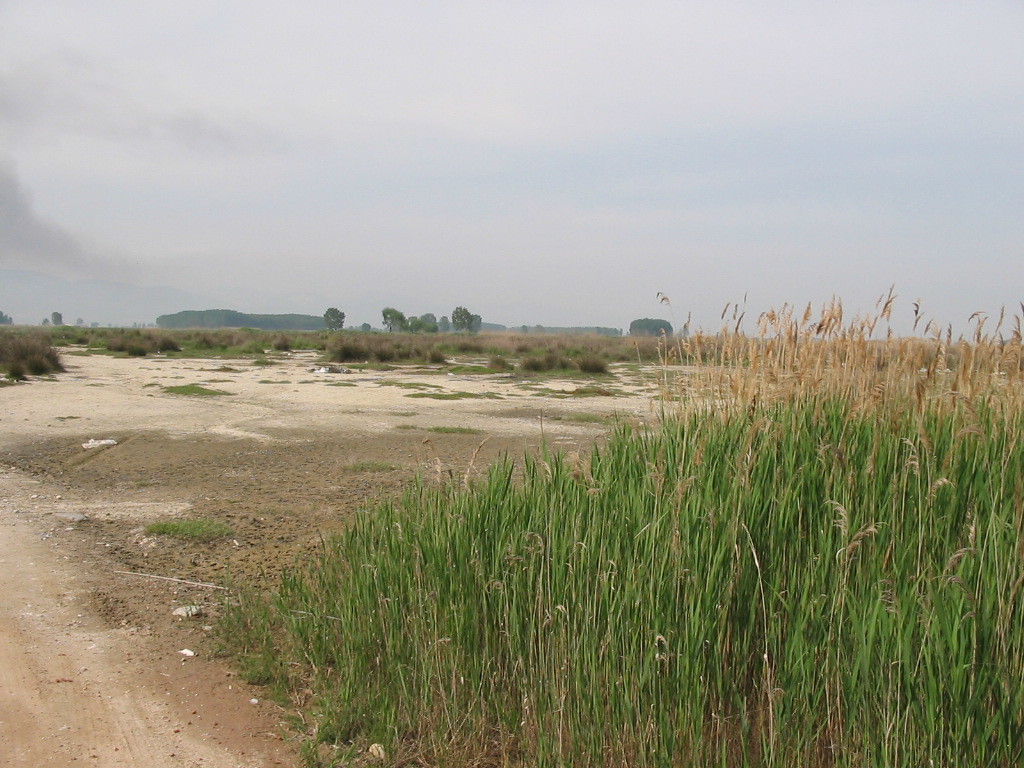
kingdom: Plantae
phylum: Tracheophyta
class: Liliopsida
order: Poales
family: Poaceae
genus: Phragmites
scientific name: Phragmites australis
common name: Common reed
